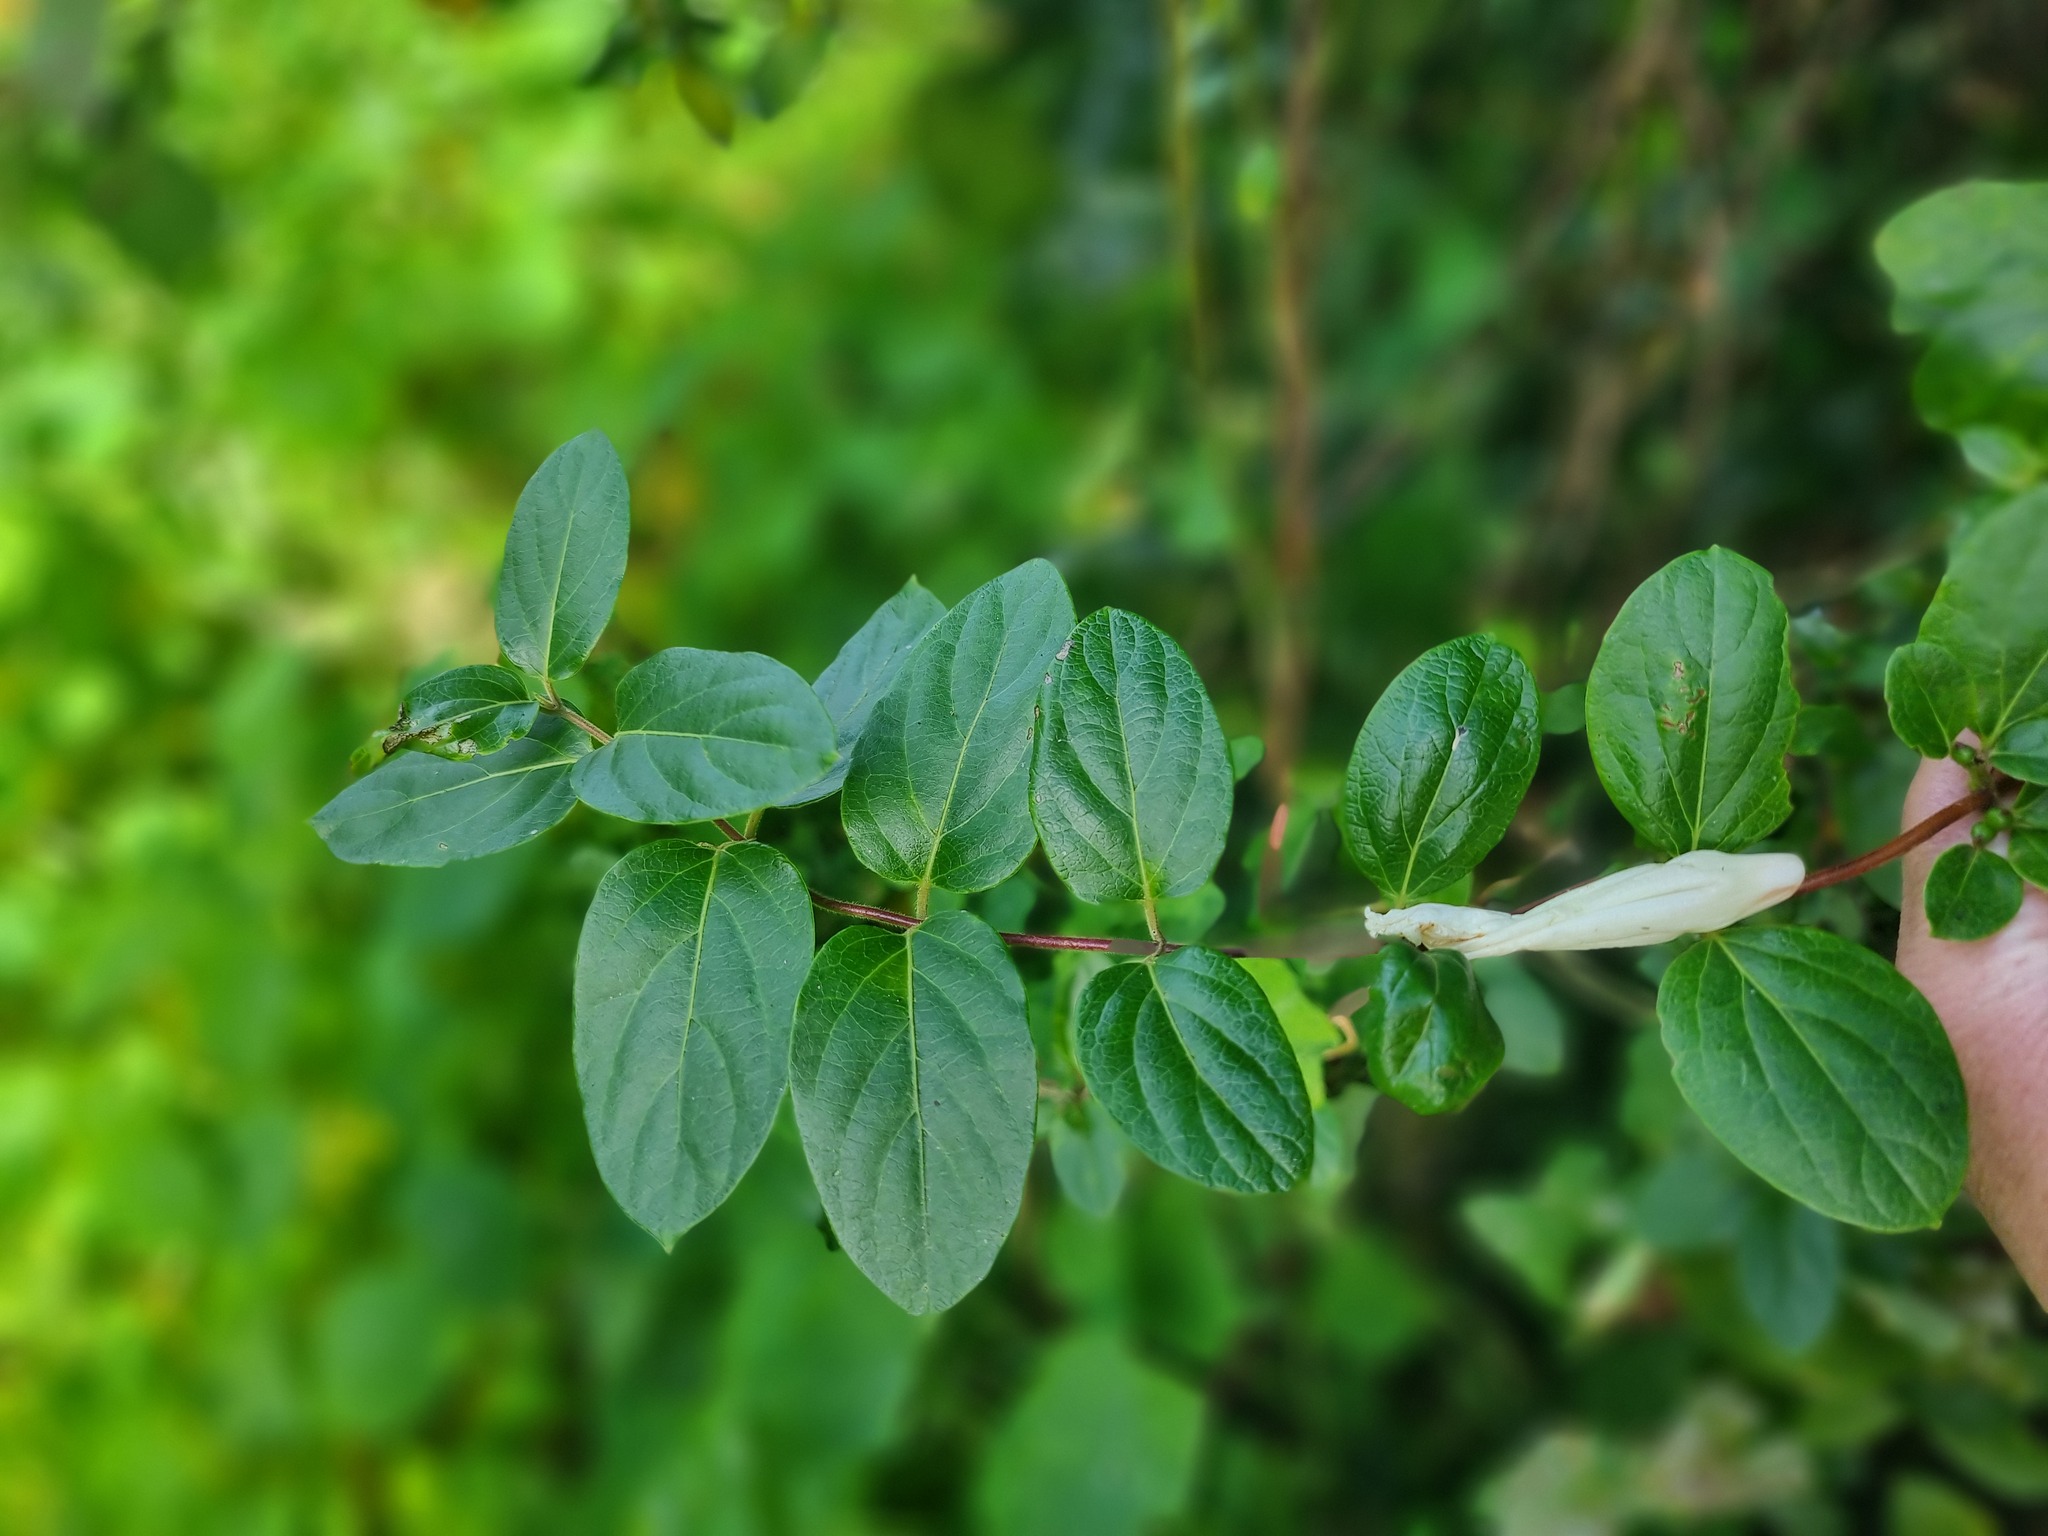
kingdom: Plantae
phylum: Tracheophyta
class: Magnoliopsida
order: Dipsacales
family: Caprifoliaceae
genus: Lonicera
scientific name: Lonicera japonica
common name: Japanese honeysuckle
